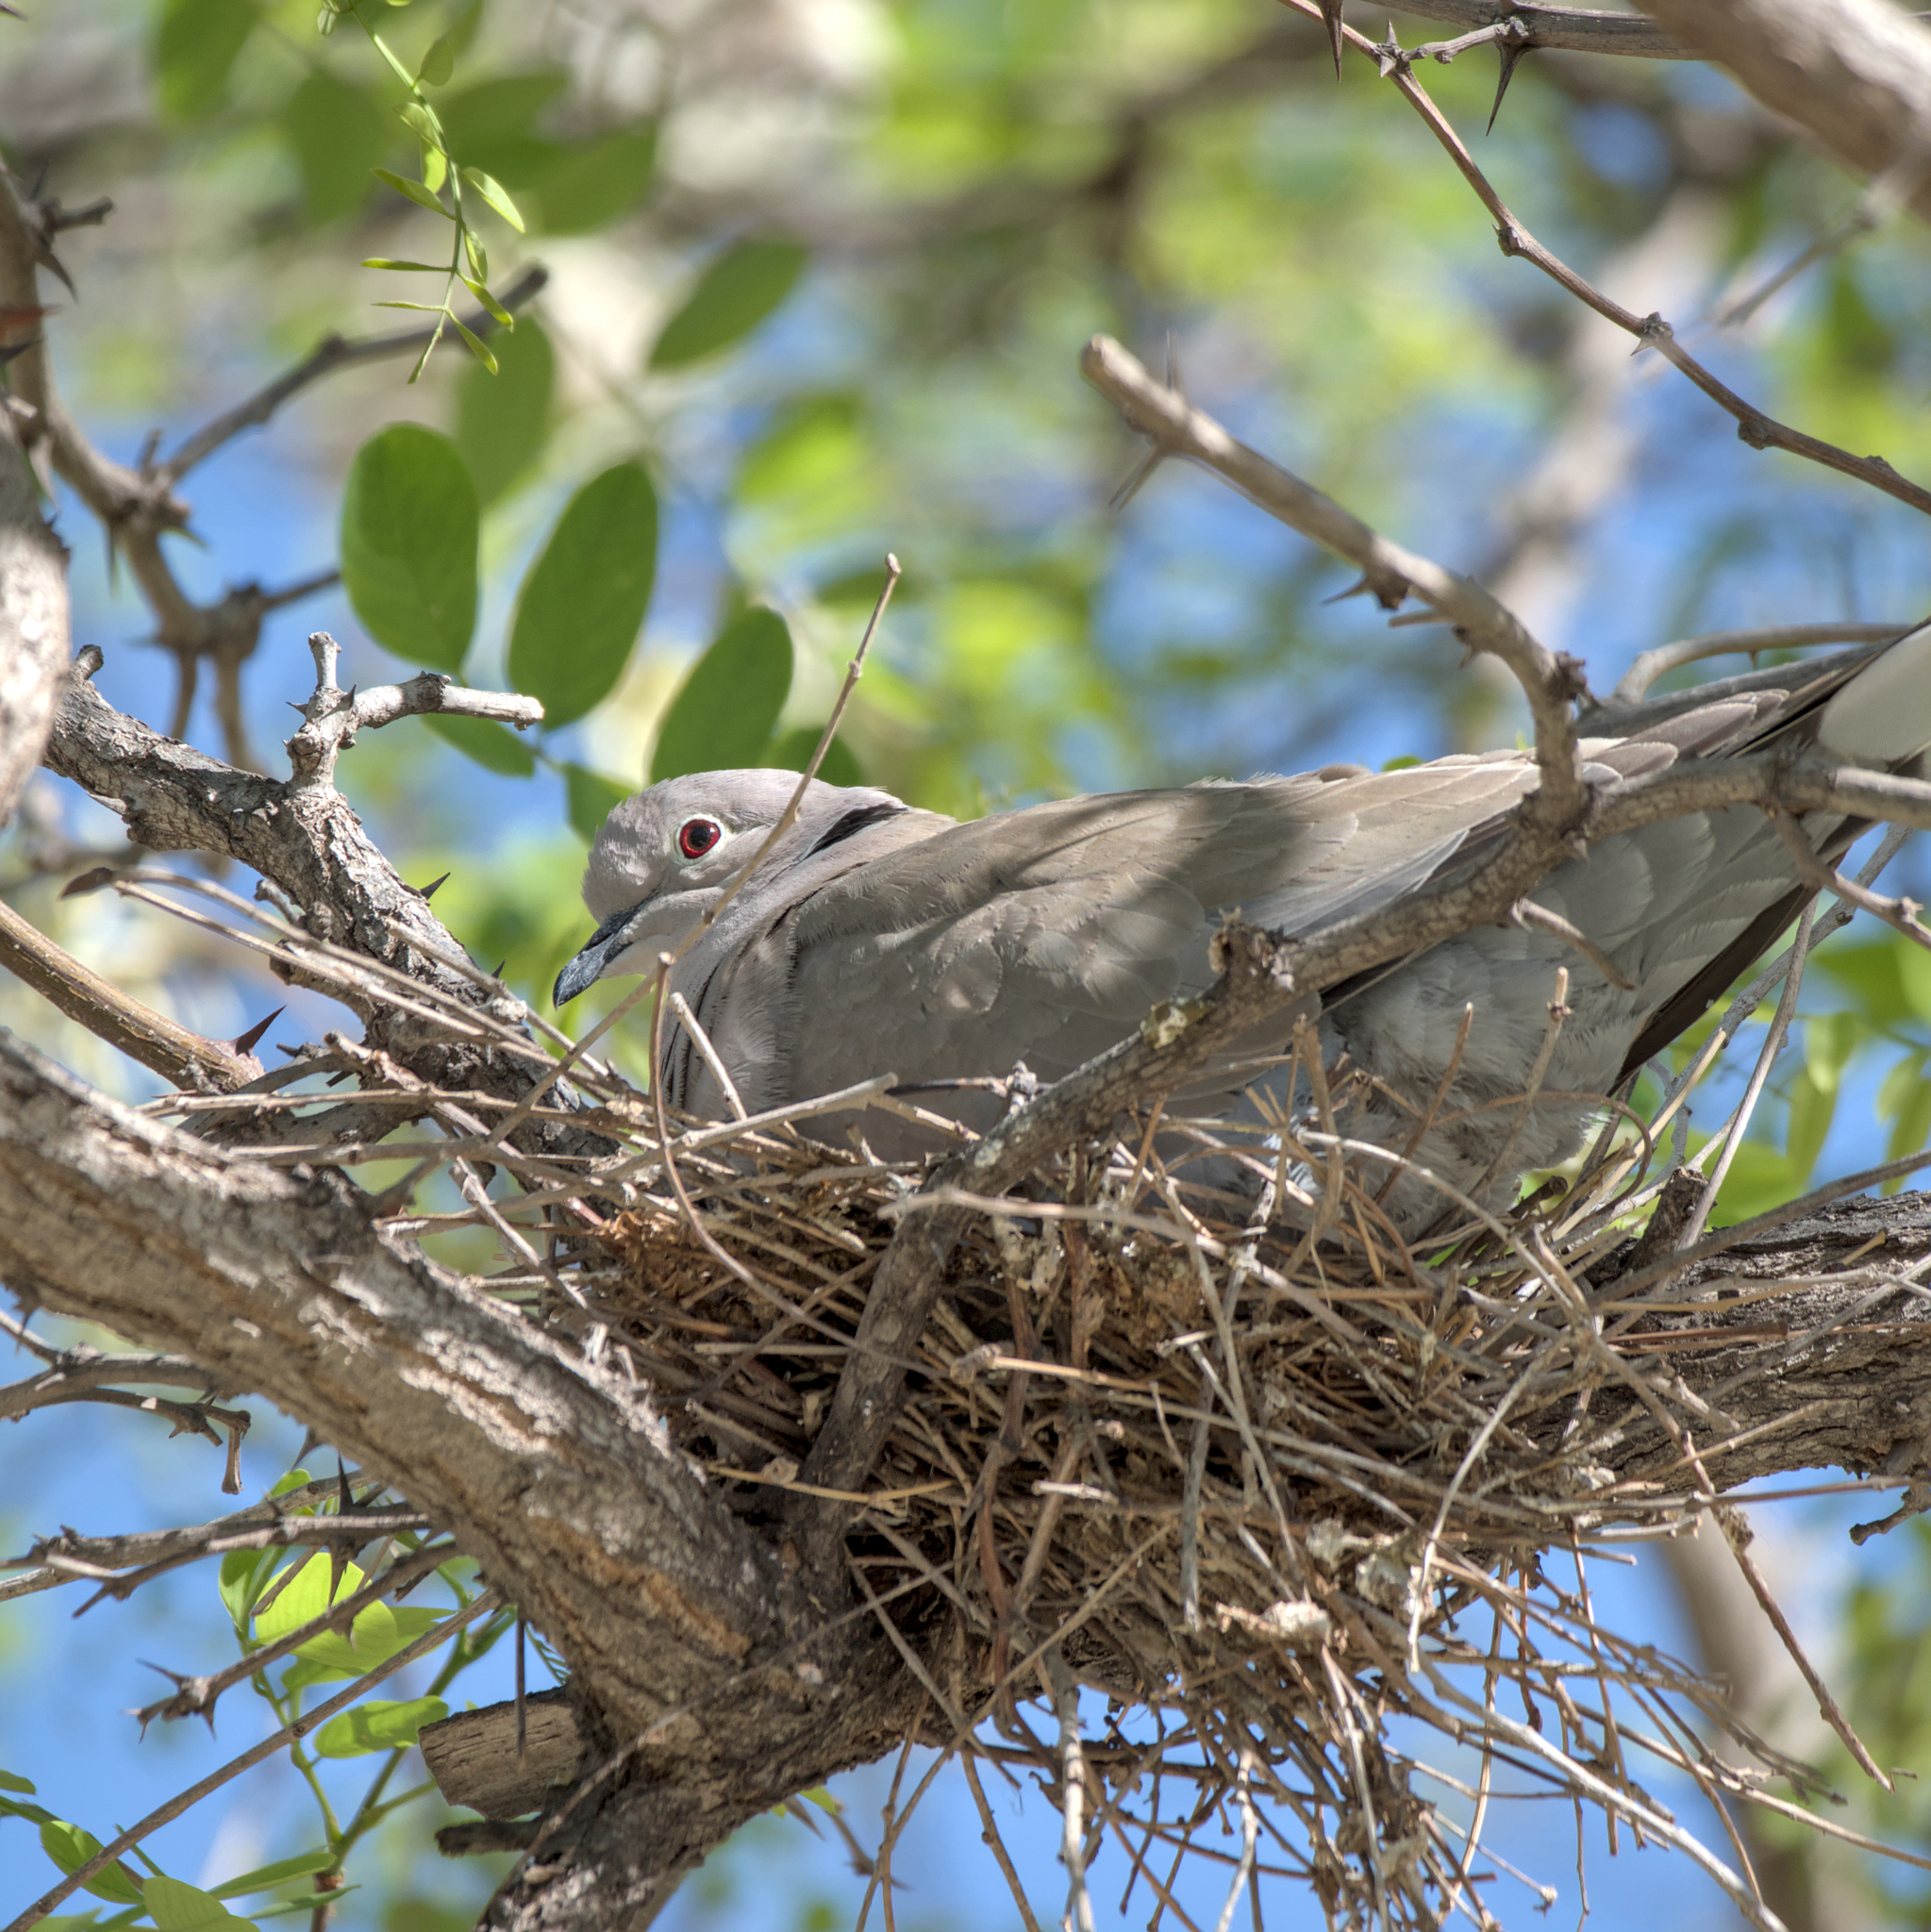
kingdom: Animalia
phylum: Chordata
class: Aves
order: Columbiformes
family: Columbidae
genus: Streptopelia
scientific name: Streptopelia decaocto
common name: Eurasian collared dove
